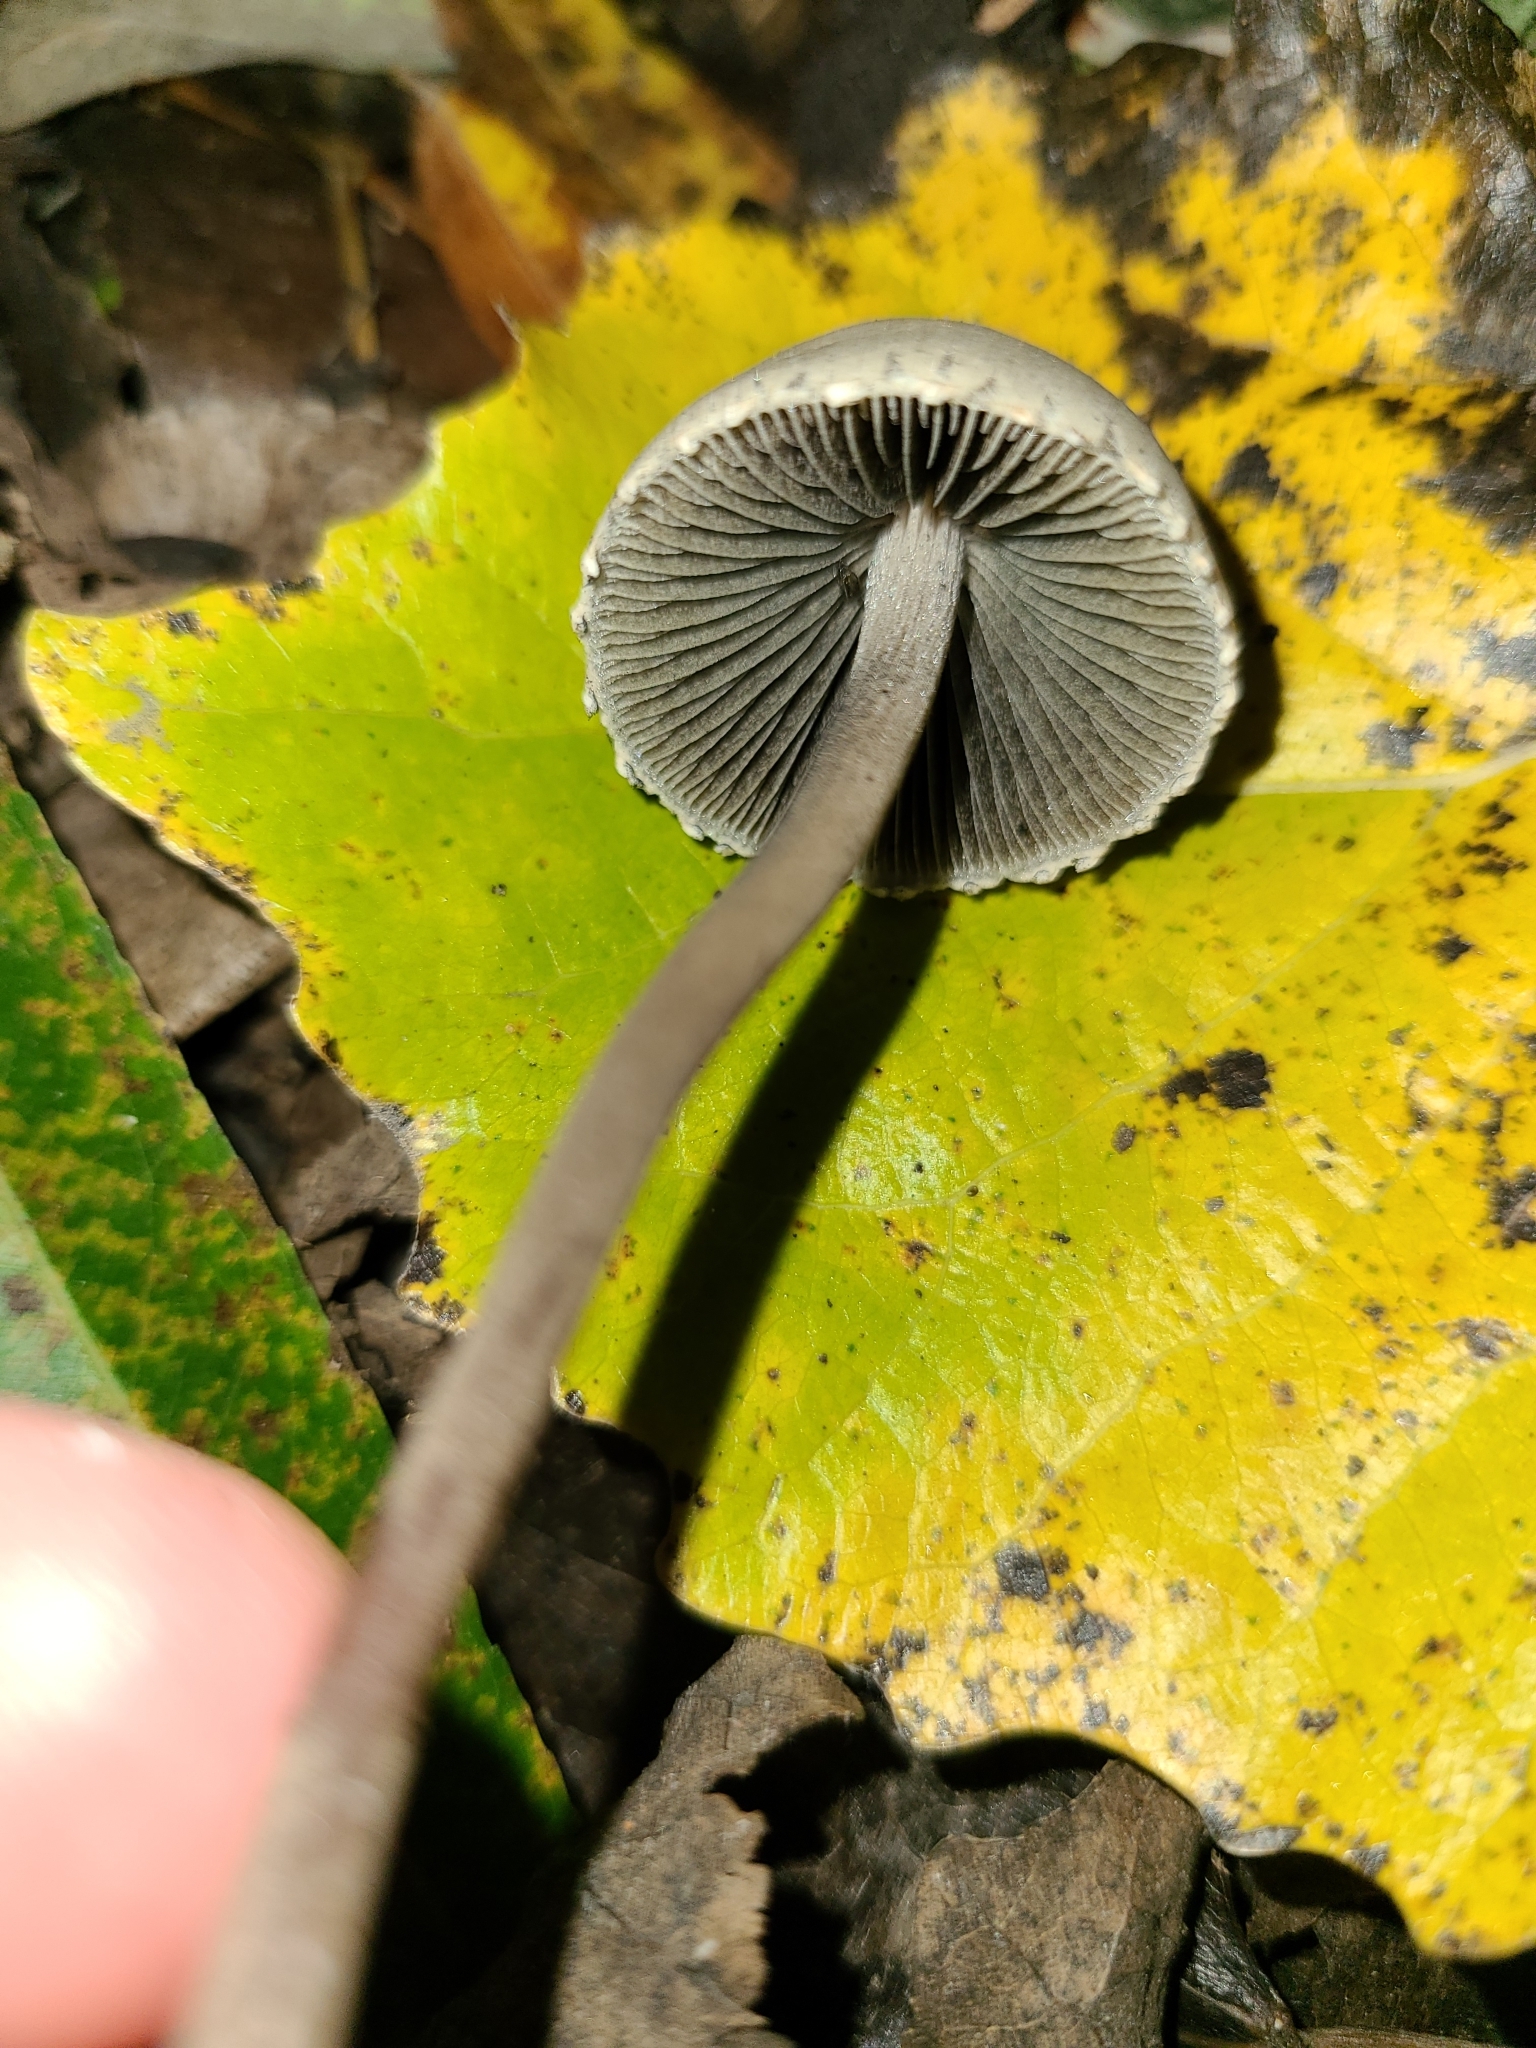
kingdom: Fungi
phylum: Basidiomycota
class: Agaricomycetes
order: Agaricales
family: Bolbitiaceae
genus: Panaeolus
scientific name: Panaeolus papilionaceus
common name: Petticoat mottlegill
